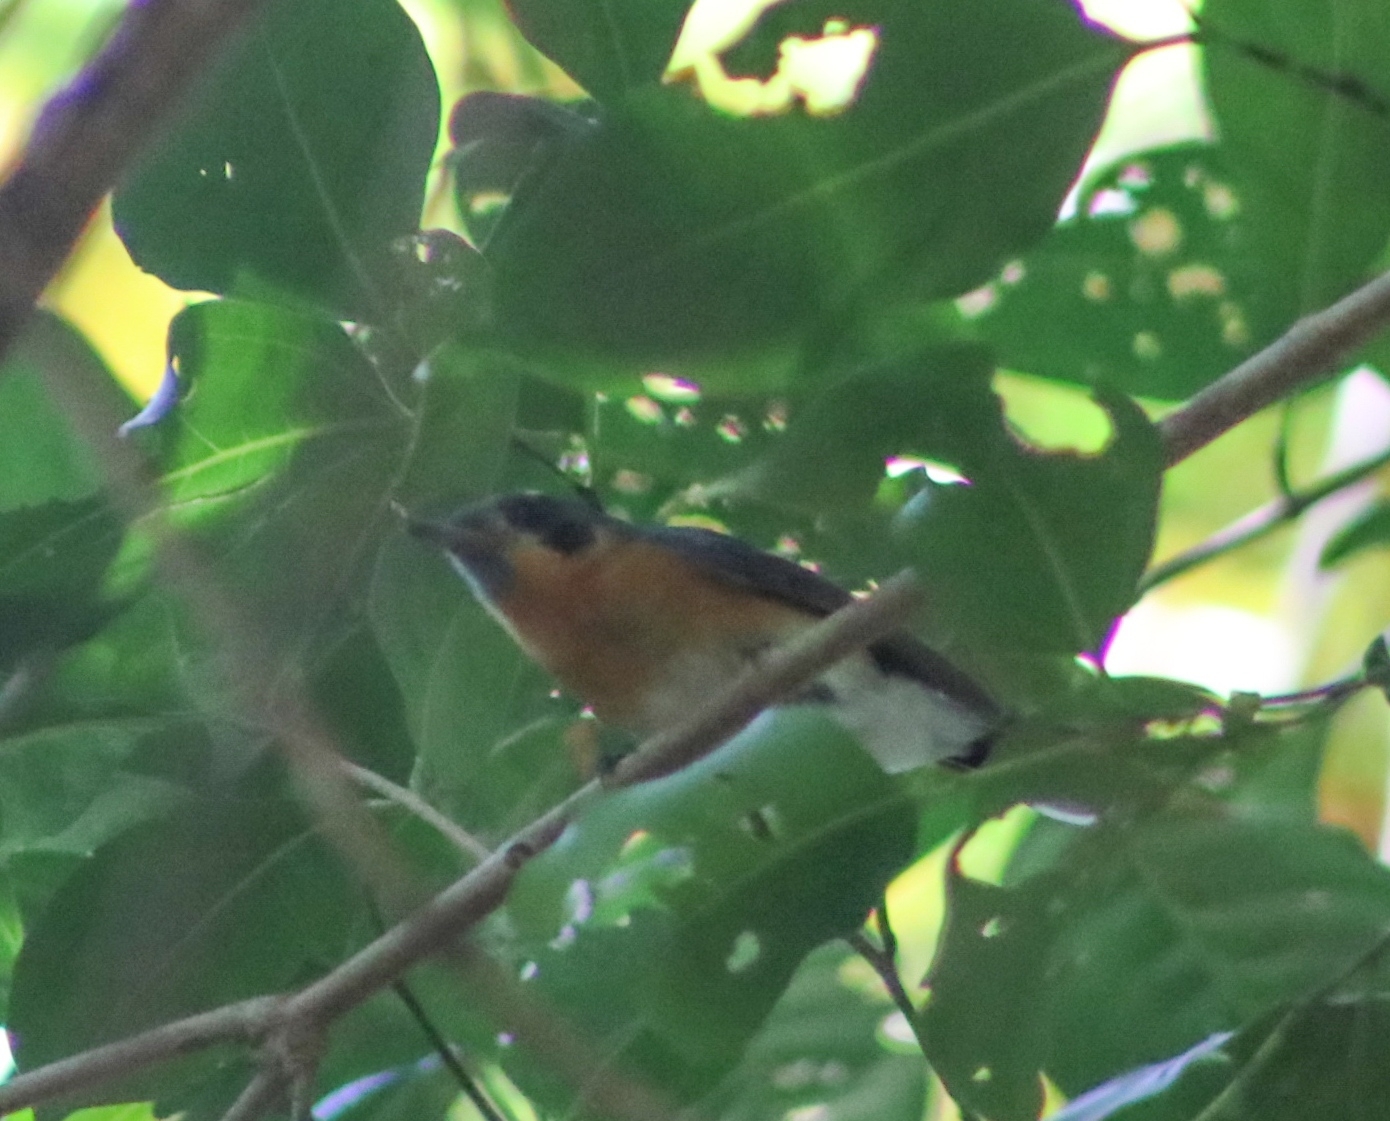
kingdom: Animalia
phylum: Chordata
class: Aves
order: Passeriformes
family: Monarchidae
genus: Symposiachrus
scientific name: Symposiachrus trivirgatus
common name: Spectacled monarch
